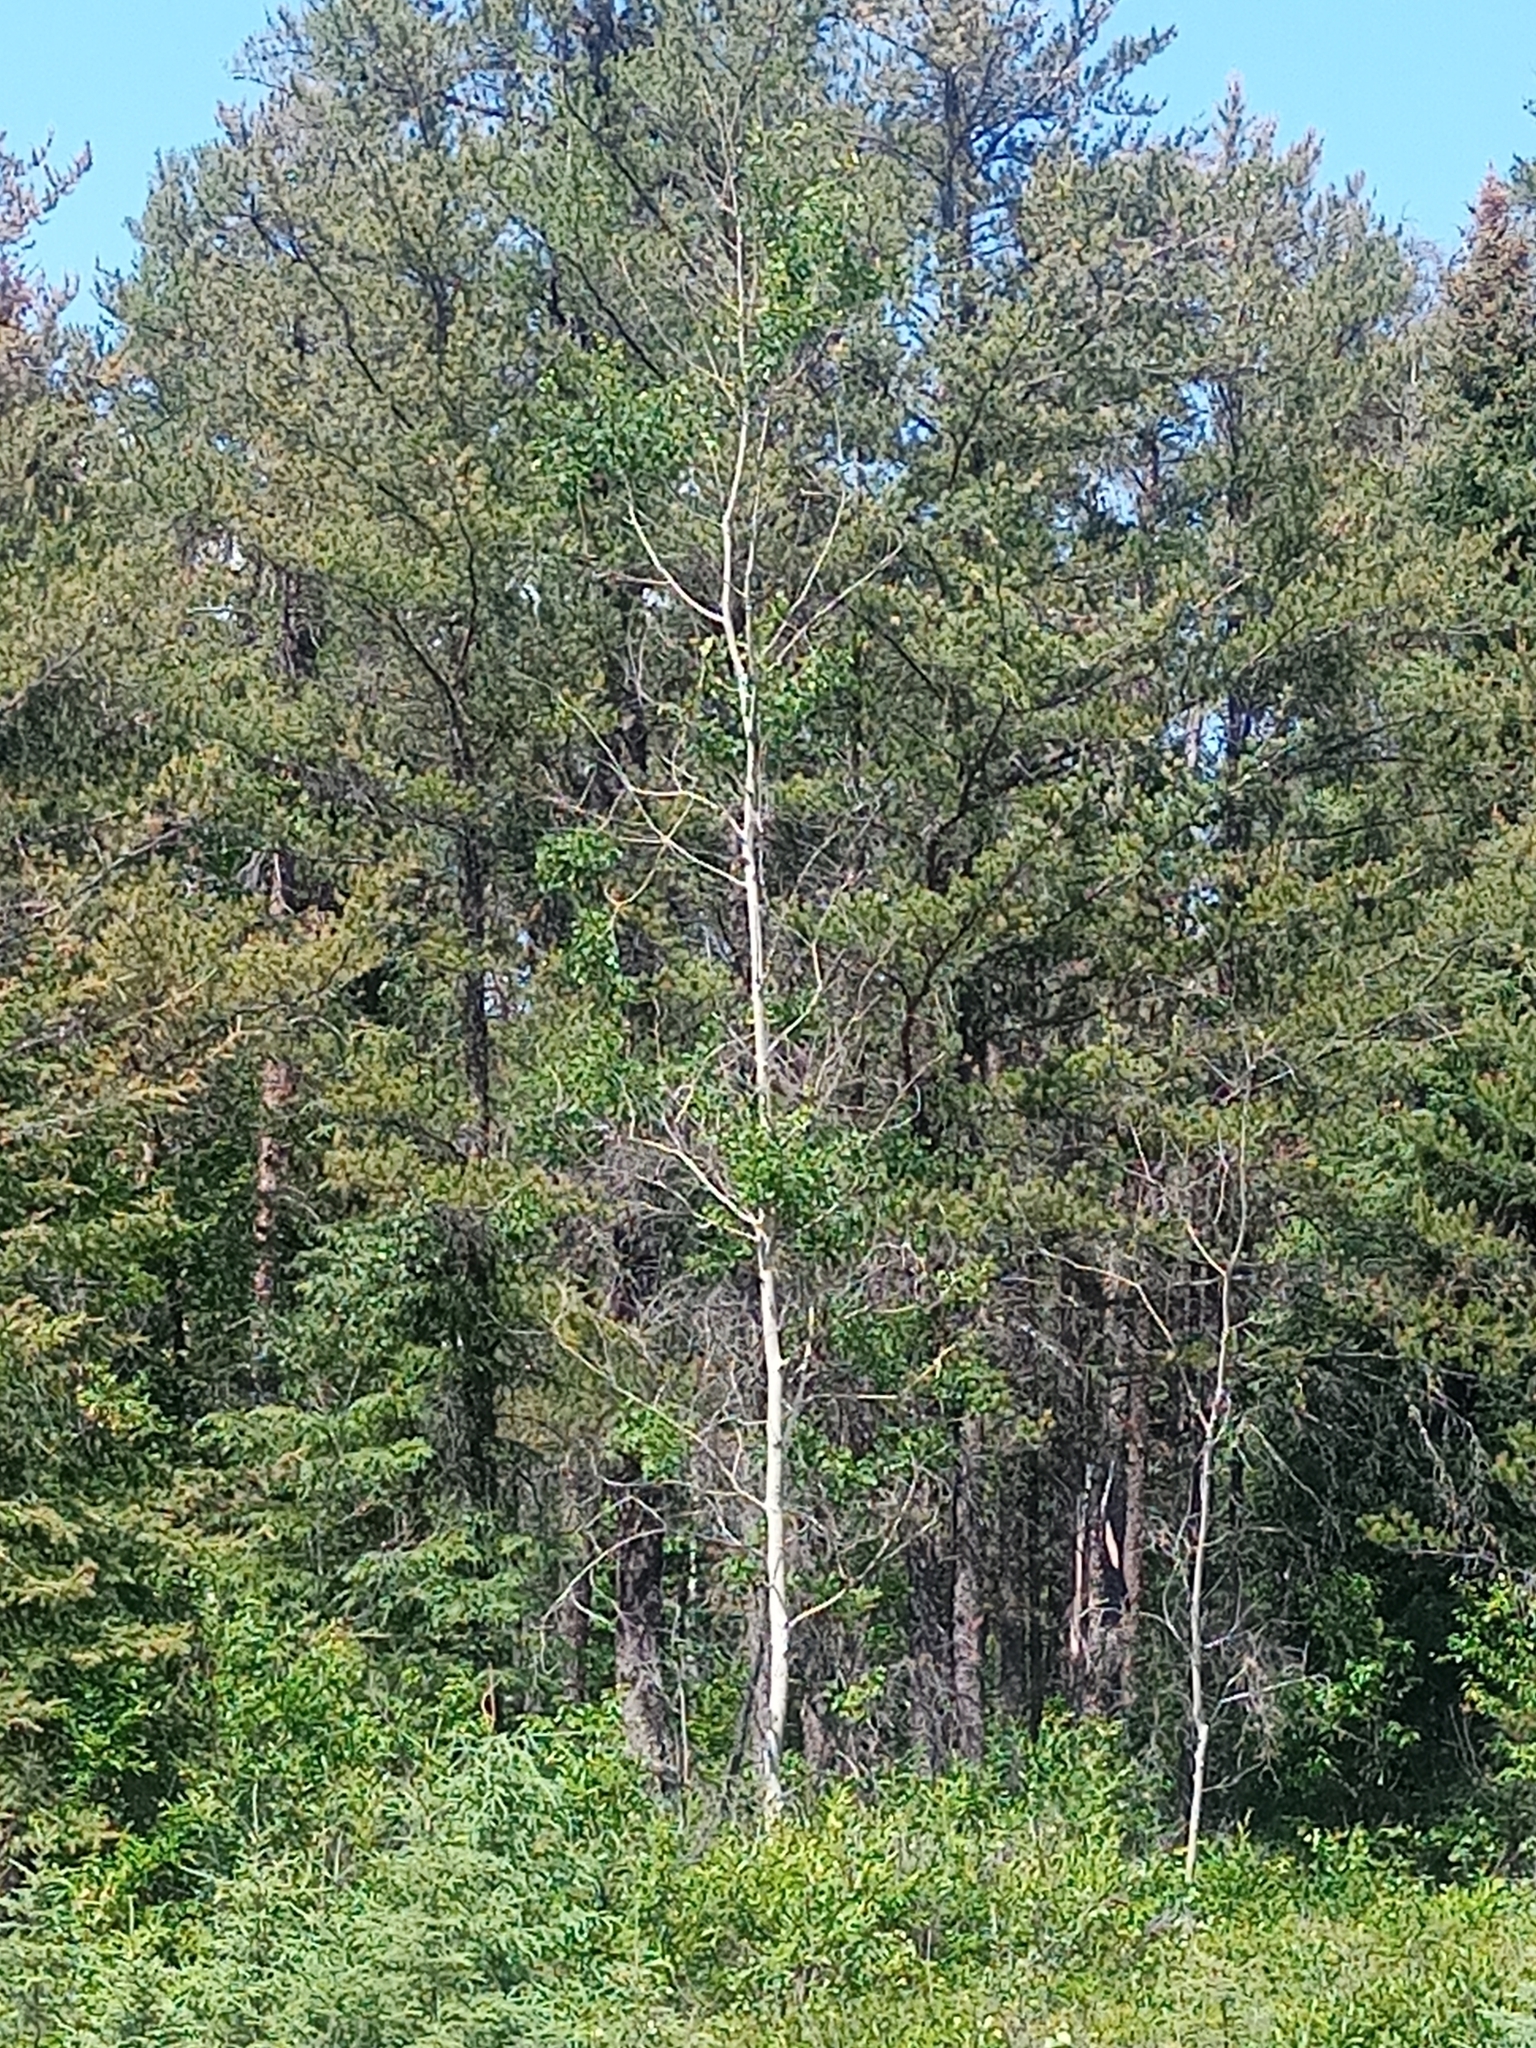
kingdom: Plantae
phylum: Tracheophyta
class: Magnoliopsida
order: Malpighiales
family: Salicaceae
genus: Populus
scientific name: Populus tremuloides
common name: Quaking aspen
